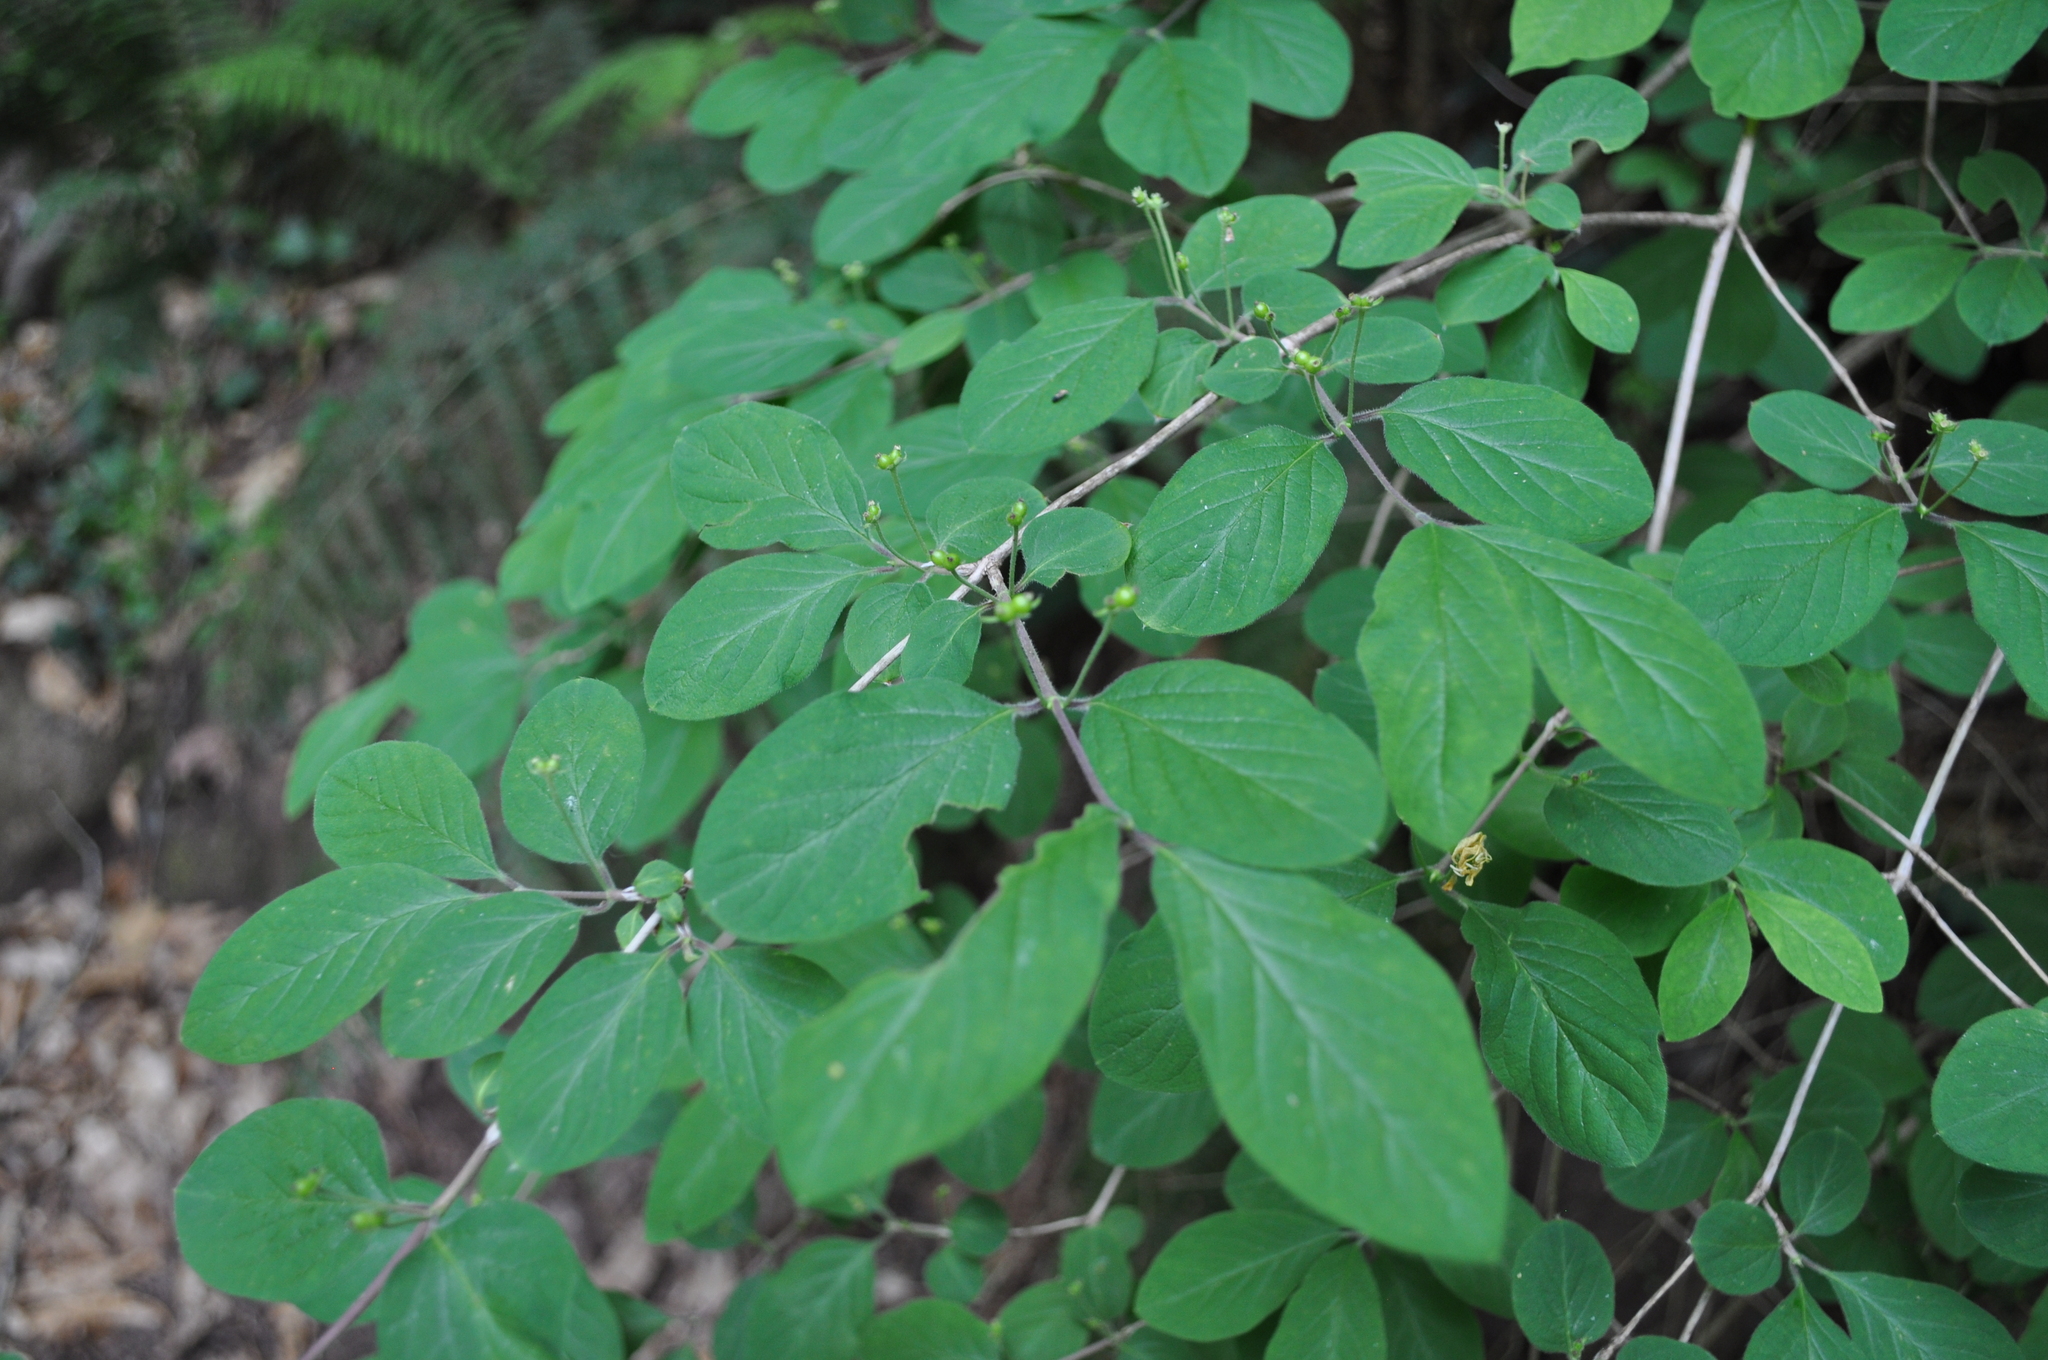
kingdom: Plantae
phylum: Tracheophyta
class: Magnoliopsida
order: Dipsacales
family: Caprifoliaceae
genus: Lonicera
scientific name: Lonicera xylosteum
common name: Fly honeysuckle
